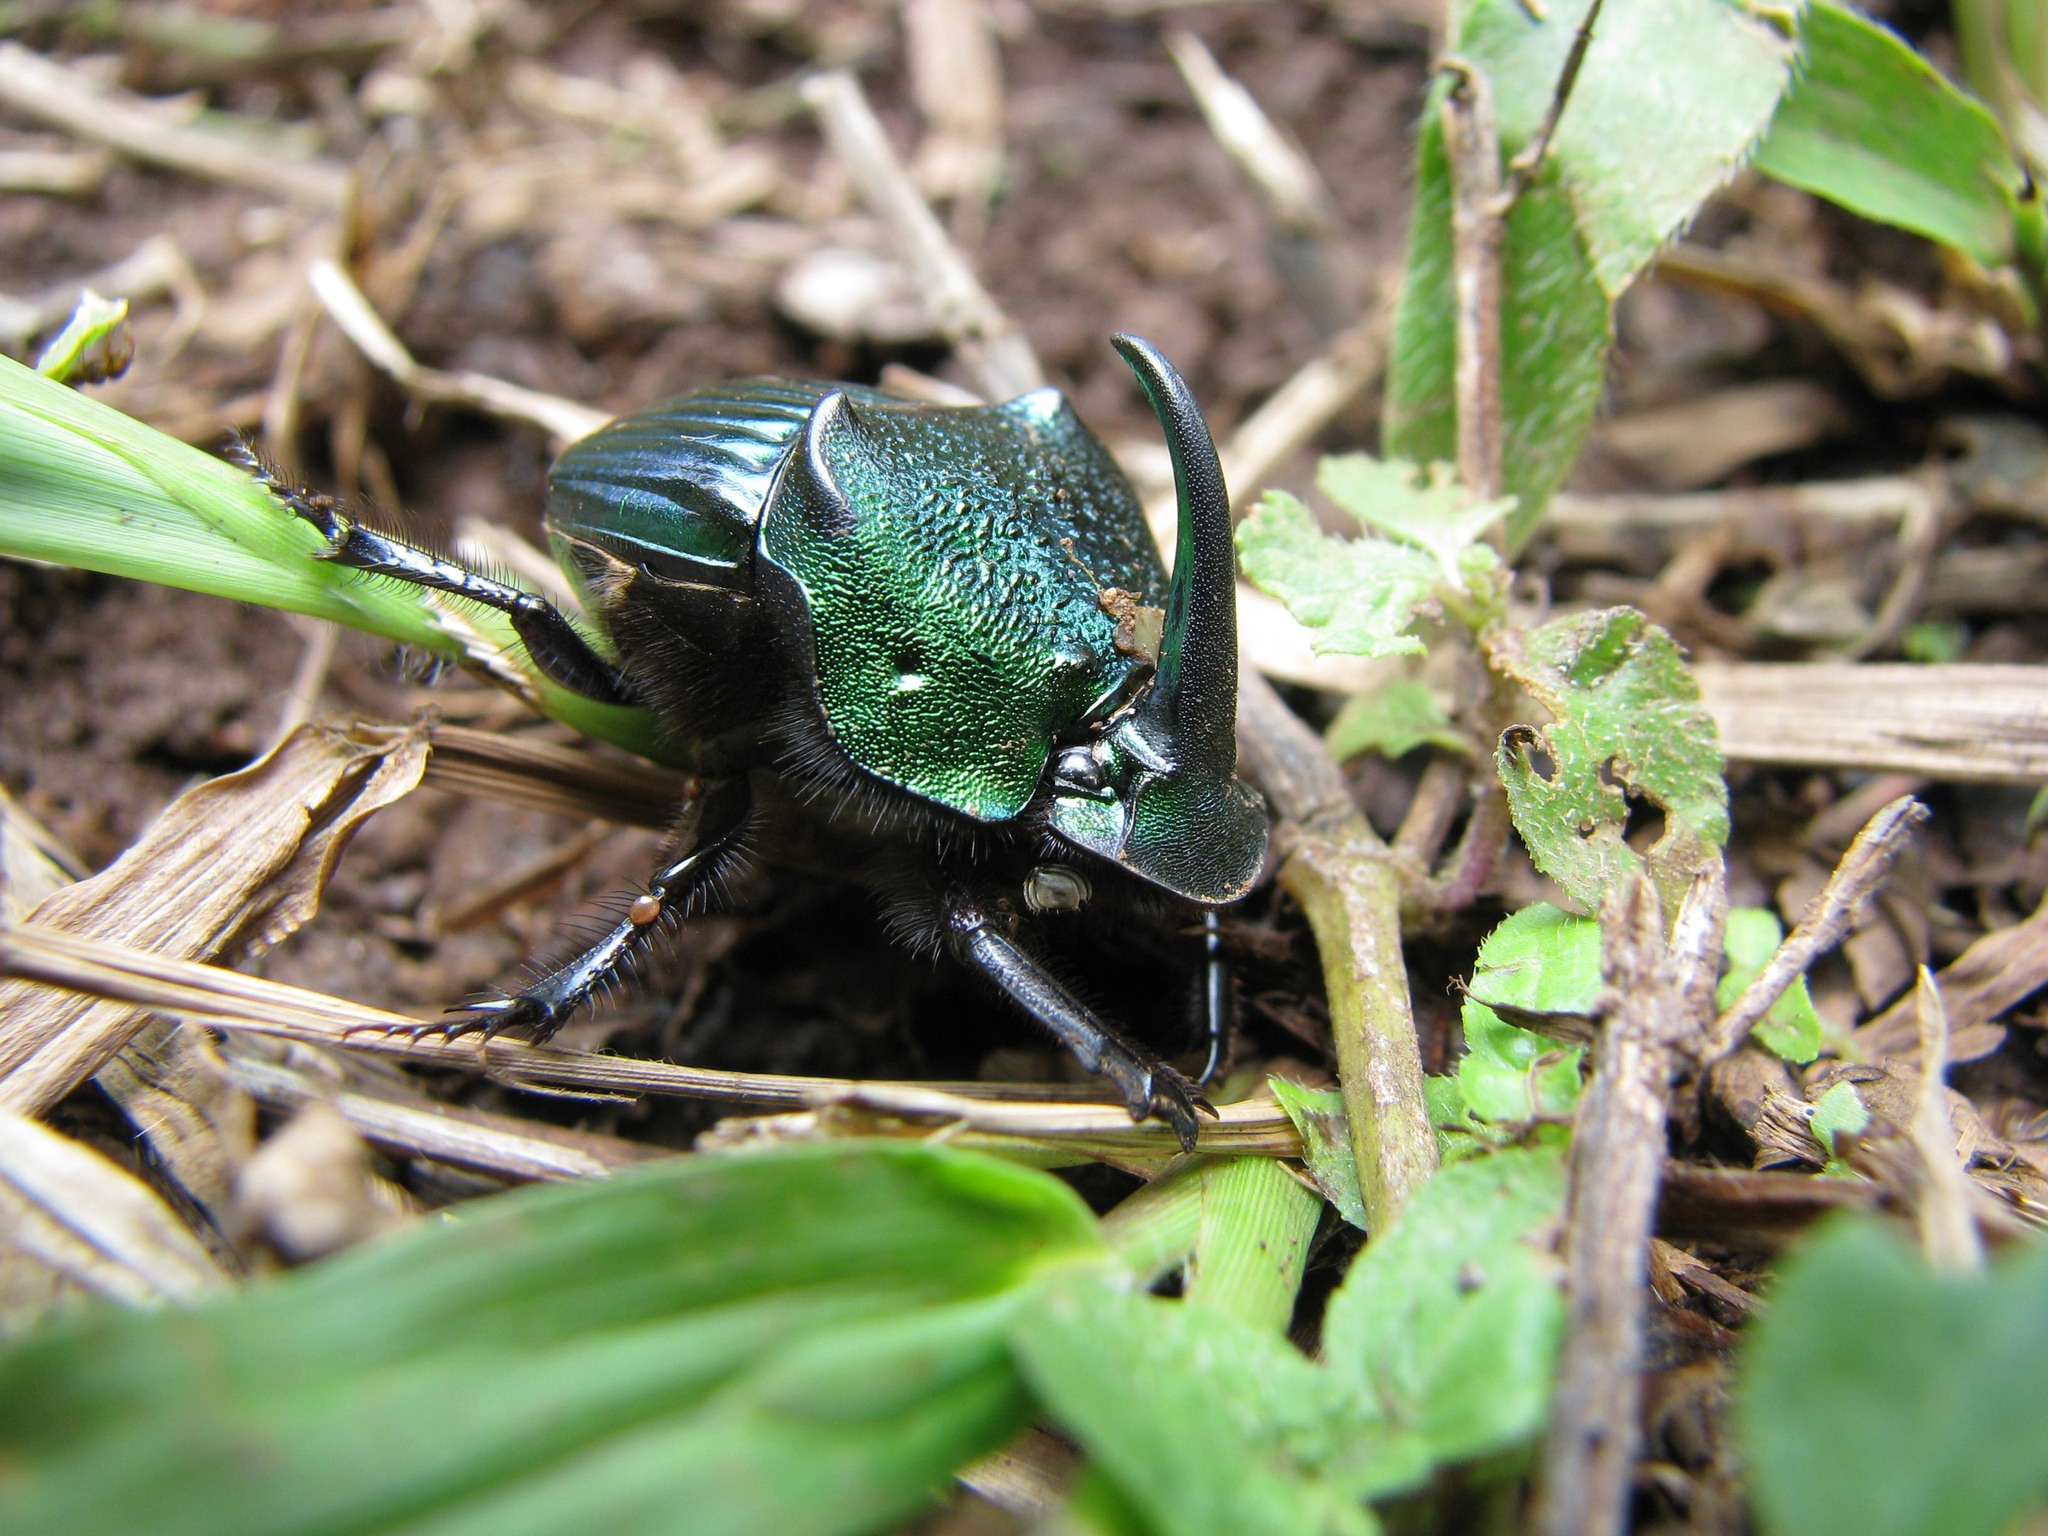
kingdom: Animalia
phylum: Arthropoda
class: Insecta
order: Coleoptera
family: Scarabaeidae
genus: Phanaeus
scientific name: Phanaeus wagneri
